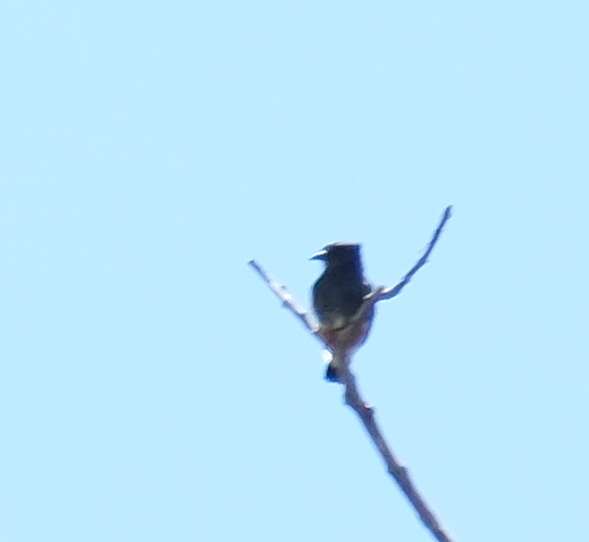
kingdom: Animalia
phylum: Chordata
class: Aves
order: Piciformes
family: Bucconidae
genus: Chelidoptera
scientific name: Chelidoptera tenebrosa
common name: Swallow-winged puffbird
